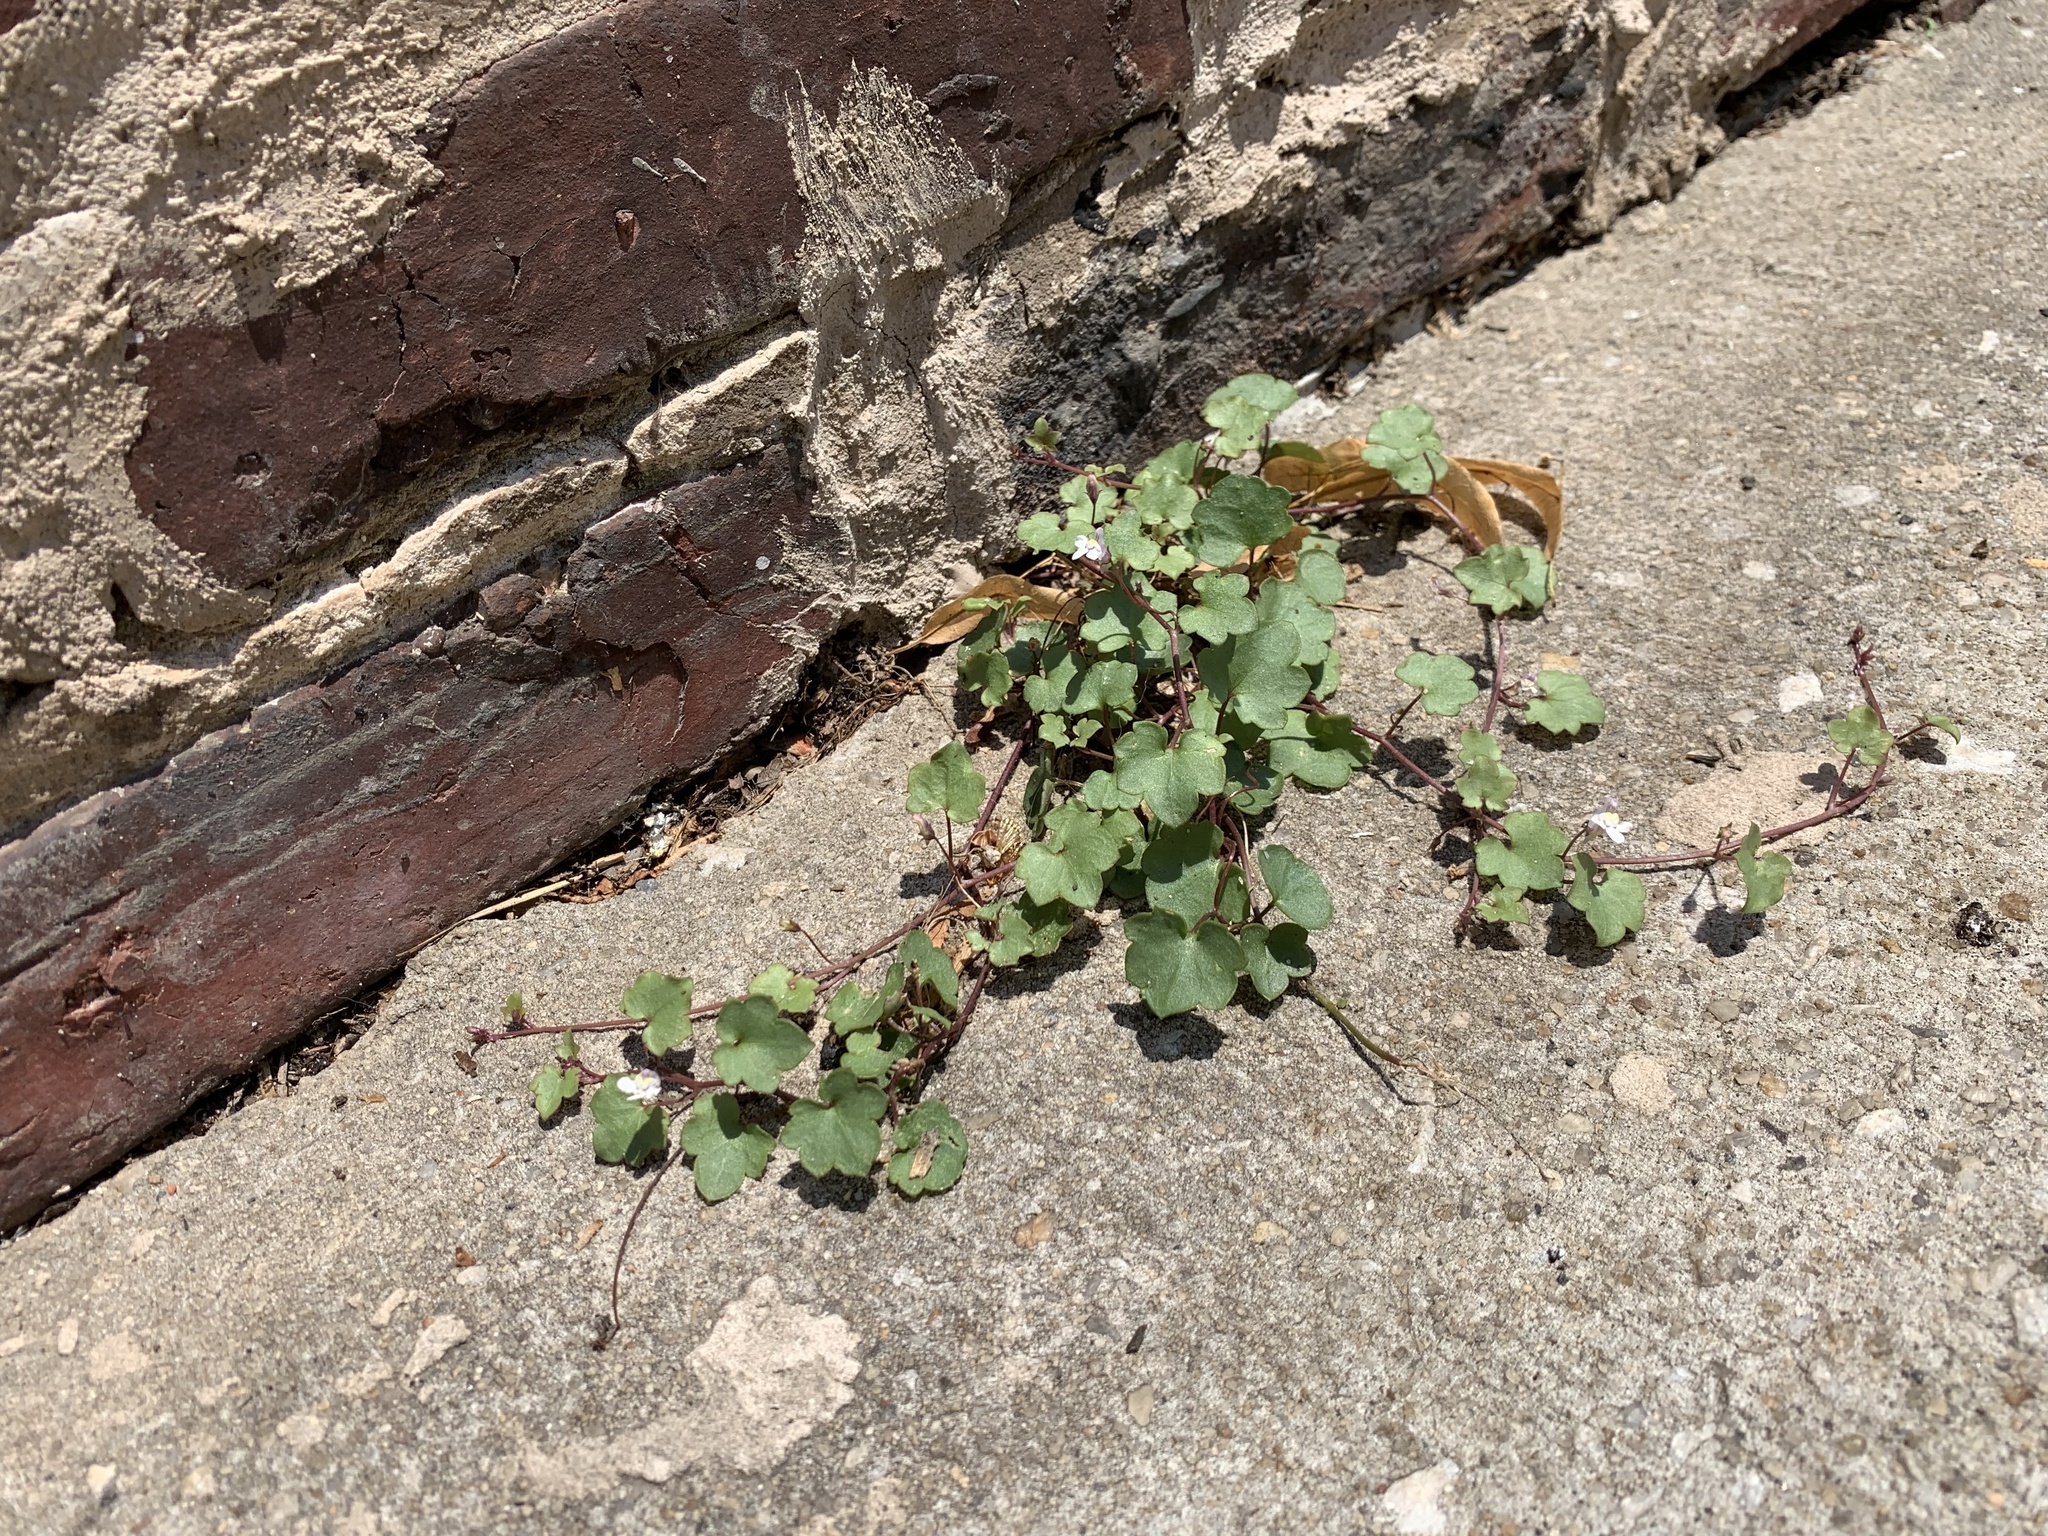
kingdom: Plantae
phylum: Tracheophyta
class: Magnoliopsida
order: Lamiales
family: Plantaginaceae
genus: Cymbalaria
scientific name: Cymbalaria muralis
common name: Ivy-leaved toadflax
